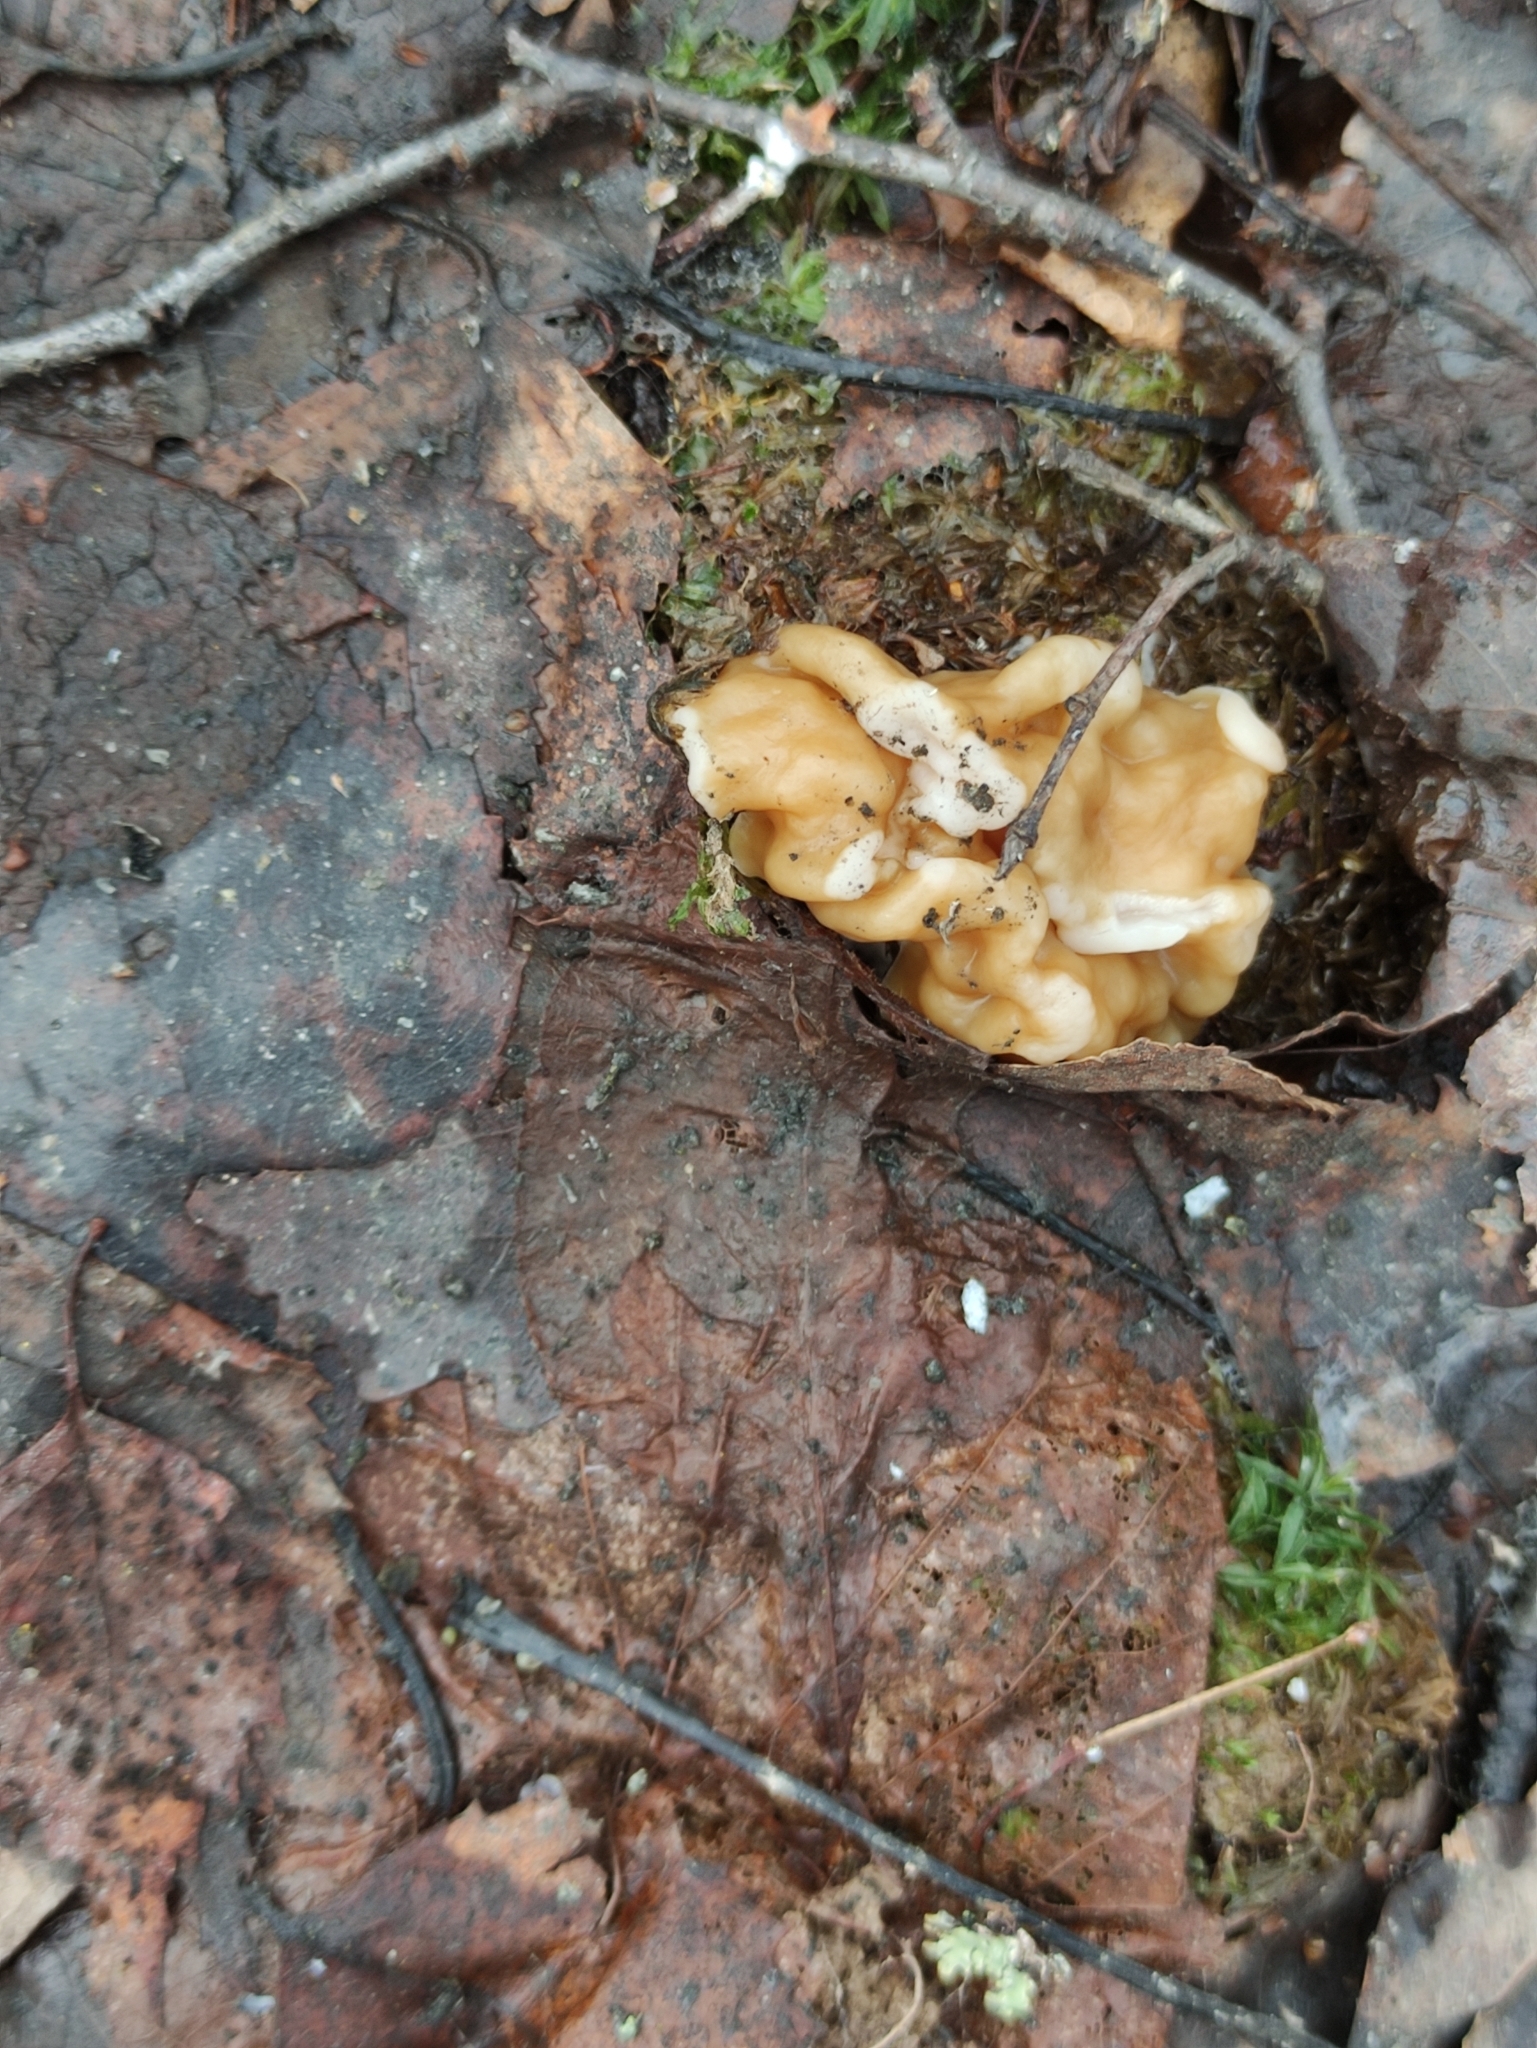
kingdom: Fungi
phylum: Ascomycota
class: Pezizomycetes
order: Pezizales
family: Discinaceae
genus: Gyromitra
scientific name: Gyromitra gigas
